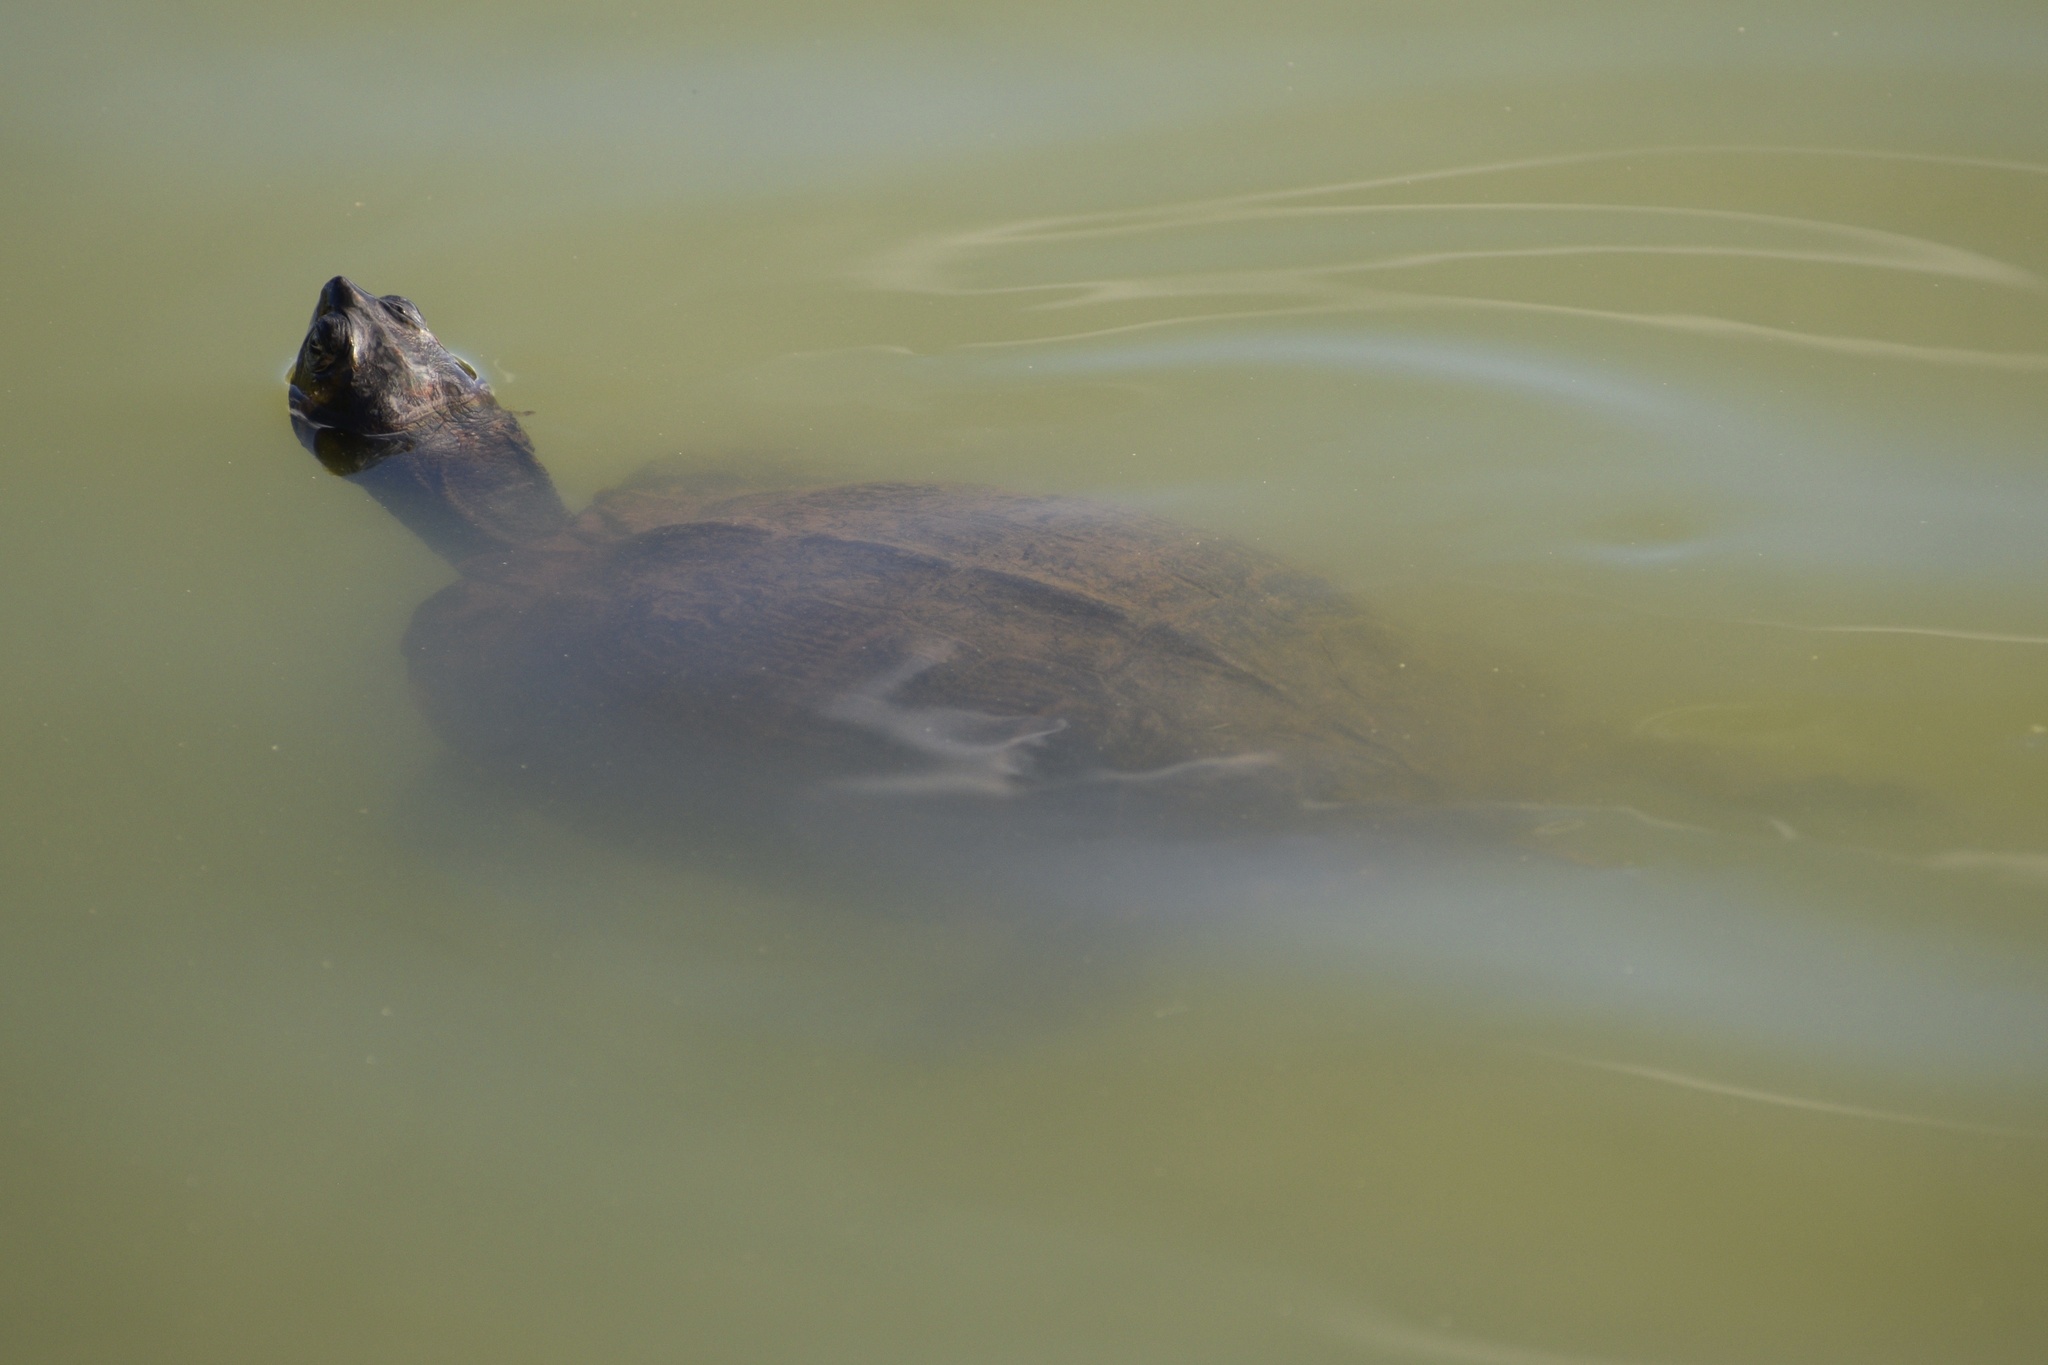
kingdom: Animalia
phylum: Chordata
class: Testudines
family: Emydidae
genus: Trachemys
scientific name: Trachemys scripta
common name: Slider
